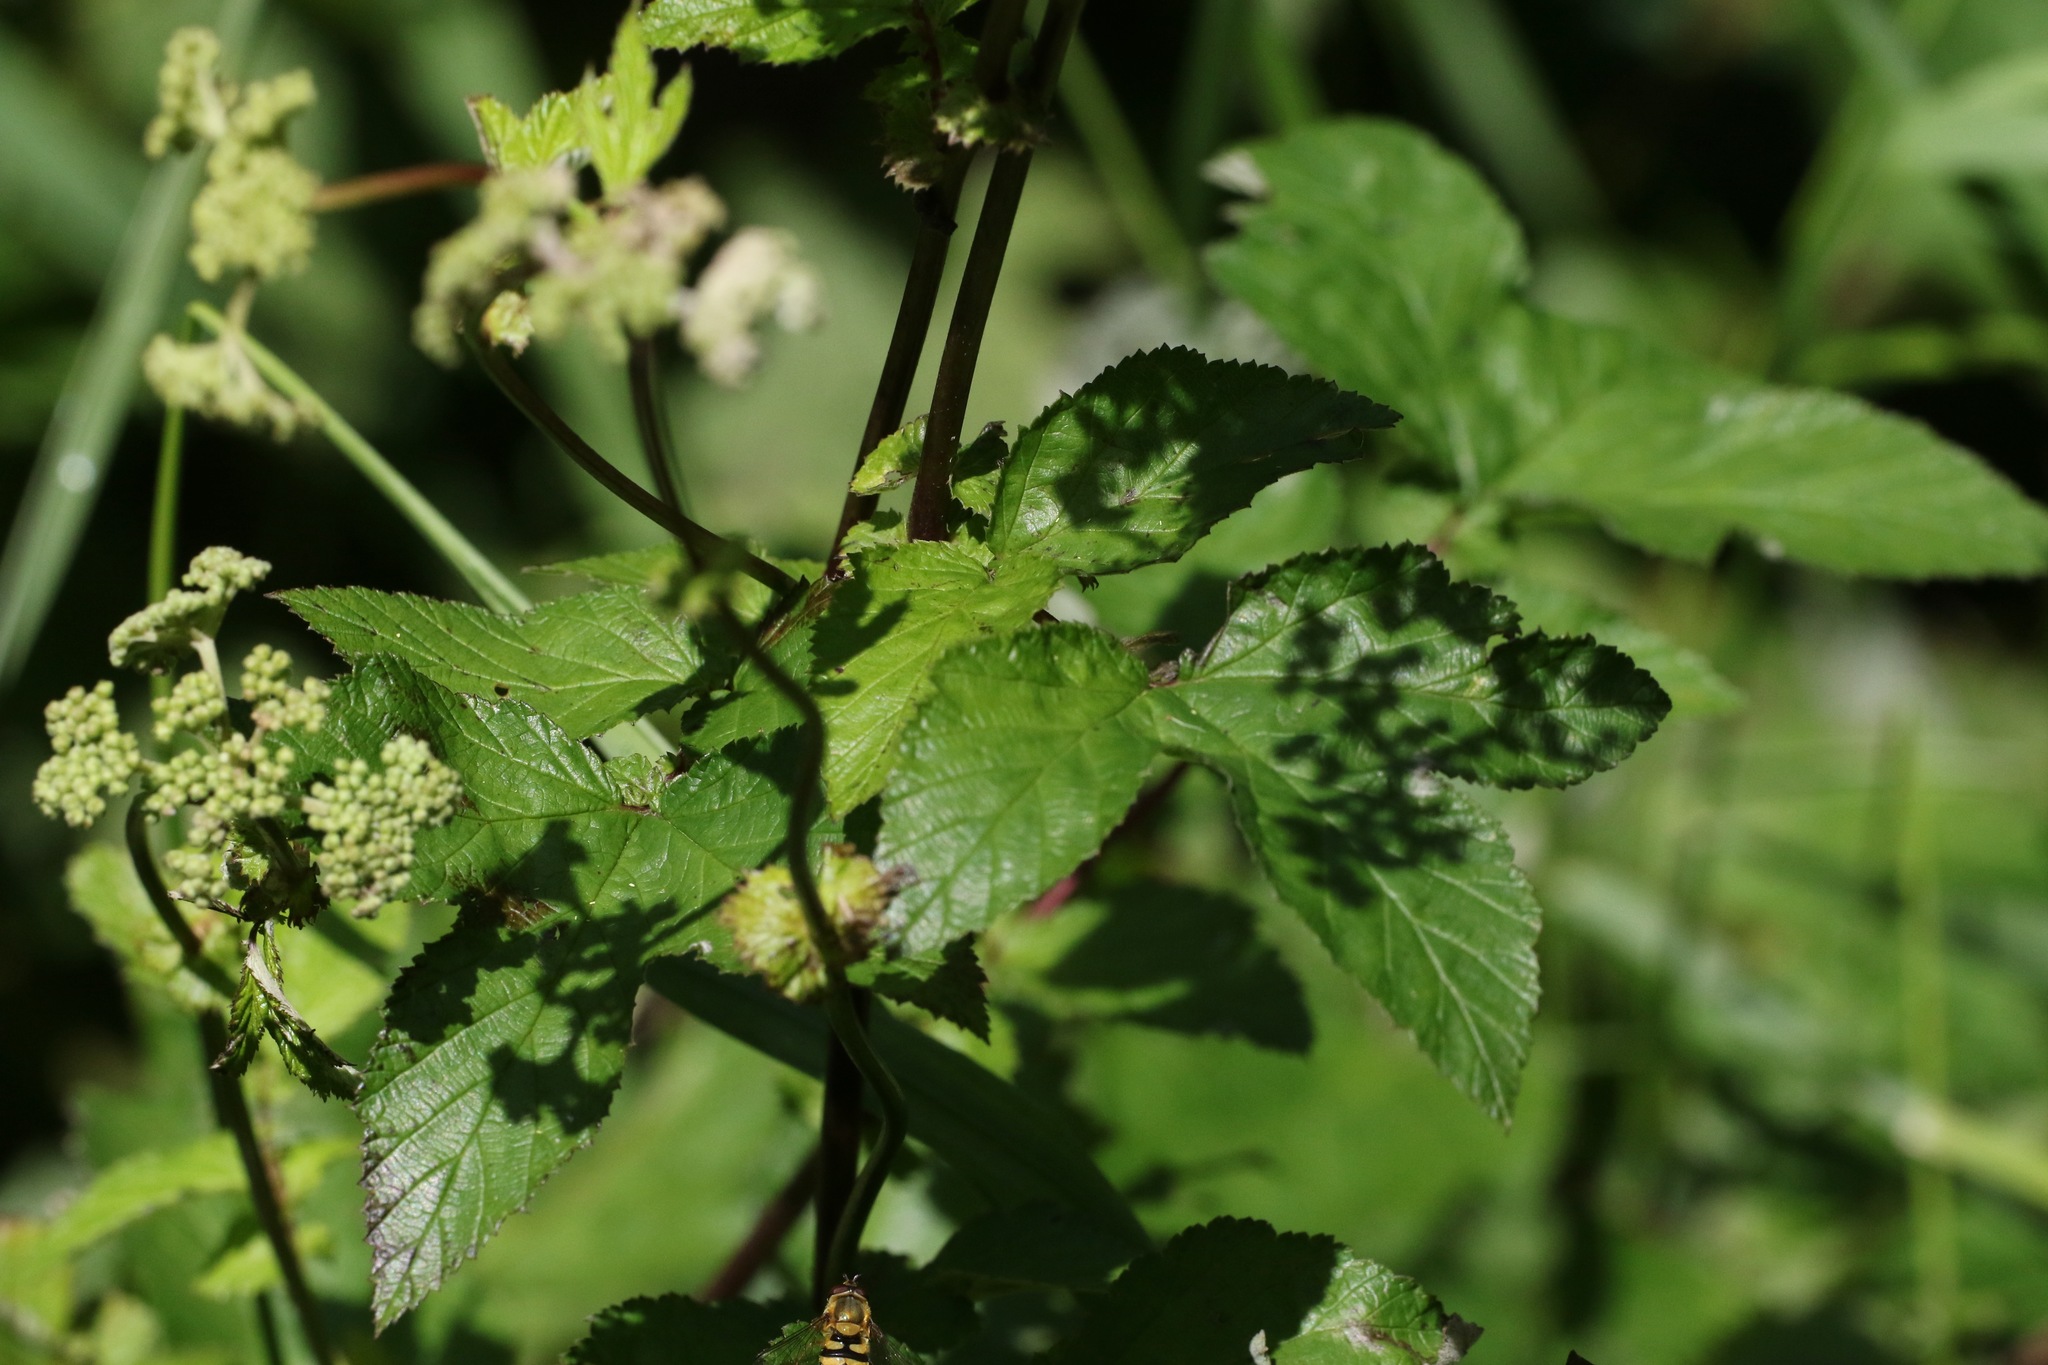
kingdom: Plantae
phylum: Tracheophyta
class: Magnoliopsida
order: Rosales
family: Rosaceae
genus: Filipendula
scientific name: Filipendula ulmaria
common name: Meadowsweet
